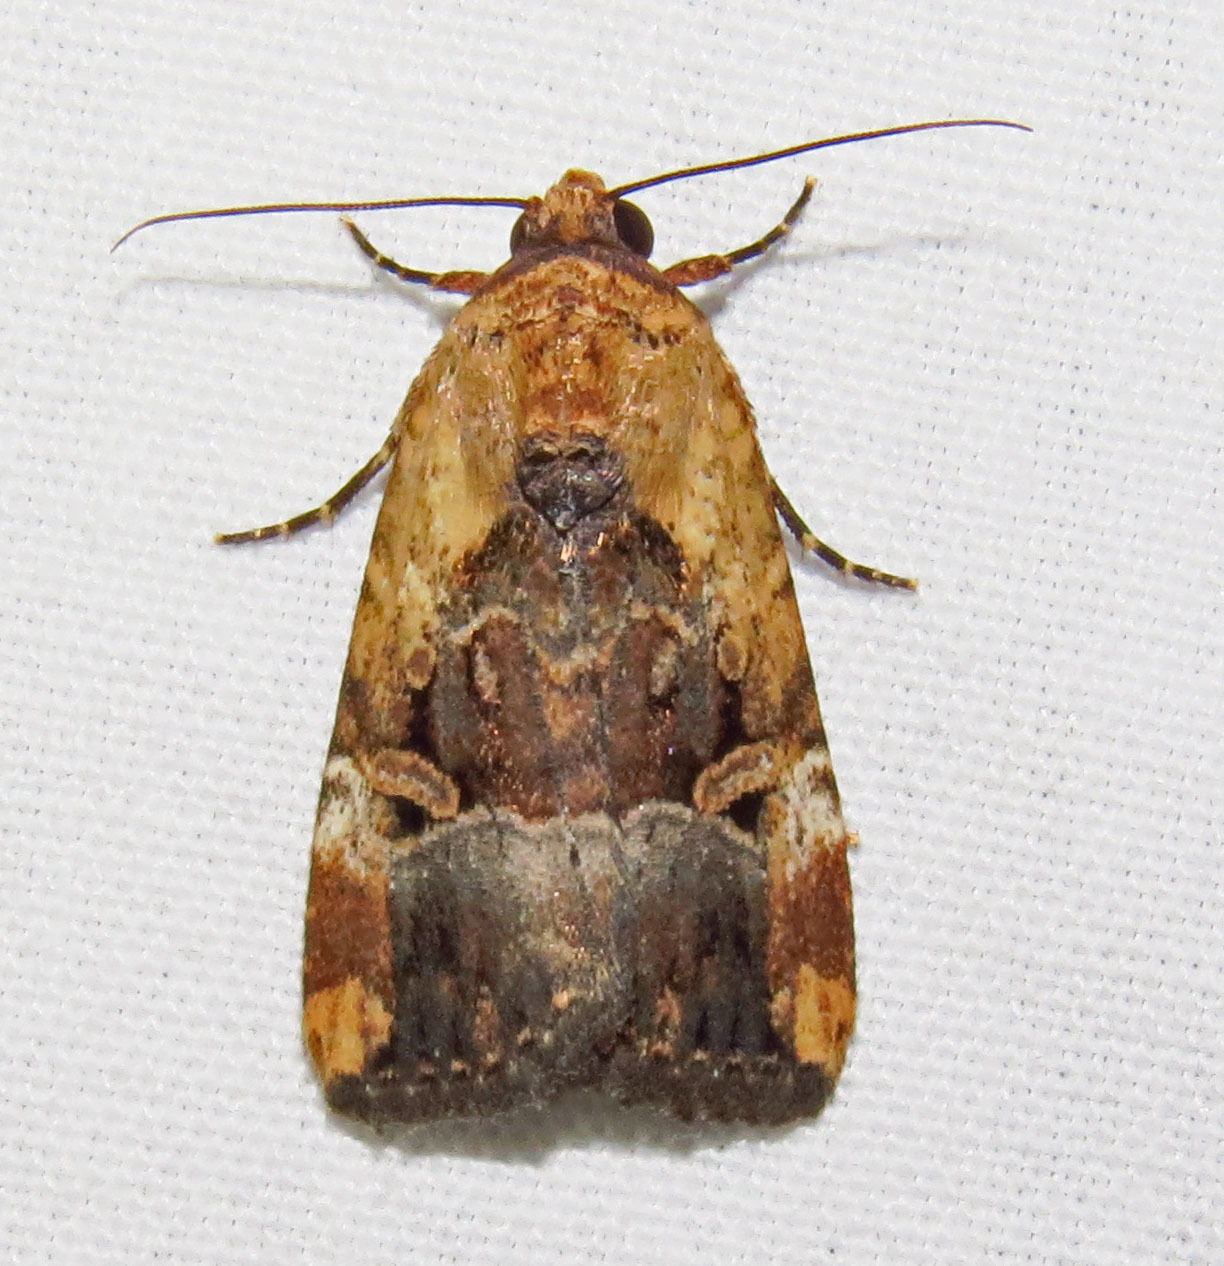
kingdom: Animalia
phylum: Arthropoda
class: Insecta
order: Lepidoptera
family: Noctuidae
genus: Elaphria
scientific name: Elaphria chalcedonia
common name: Chalcedony midget
